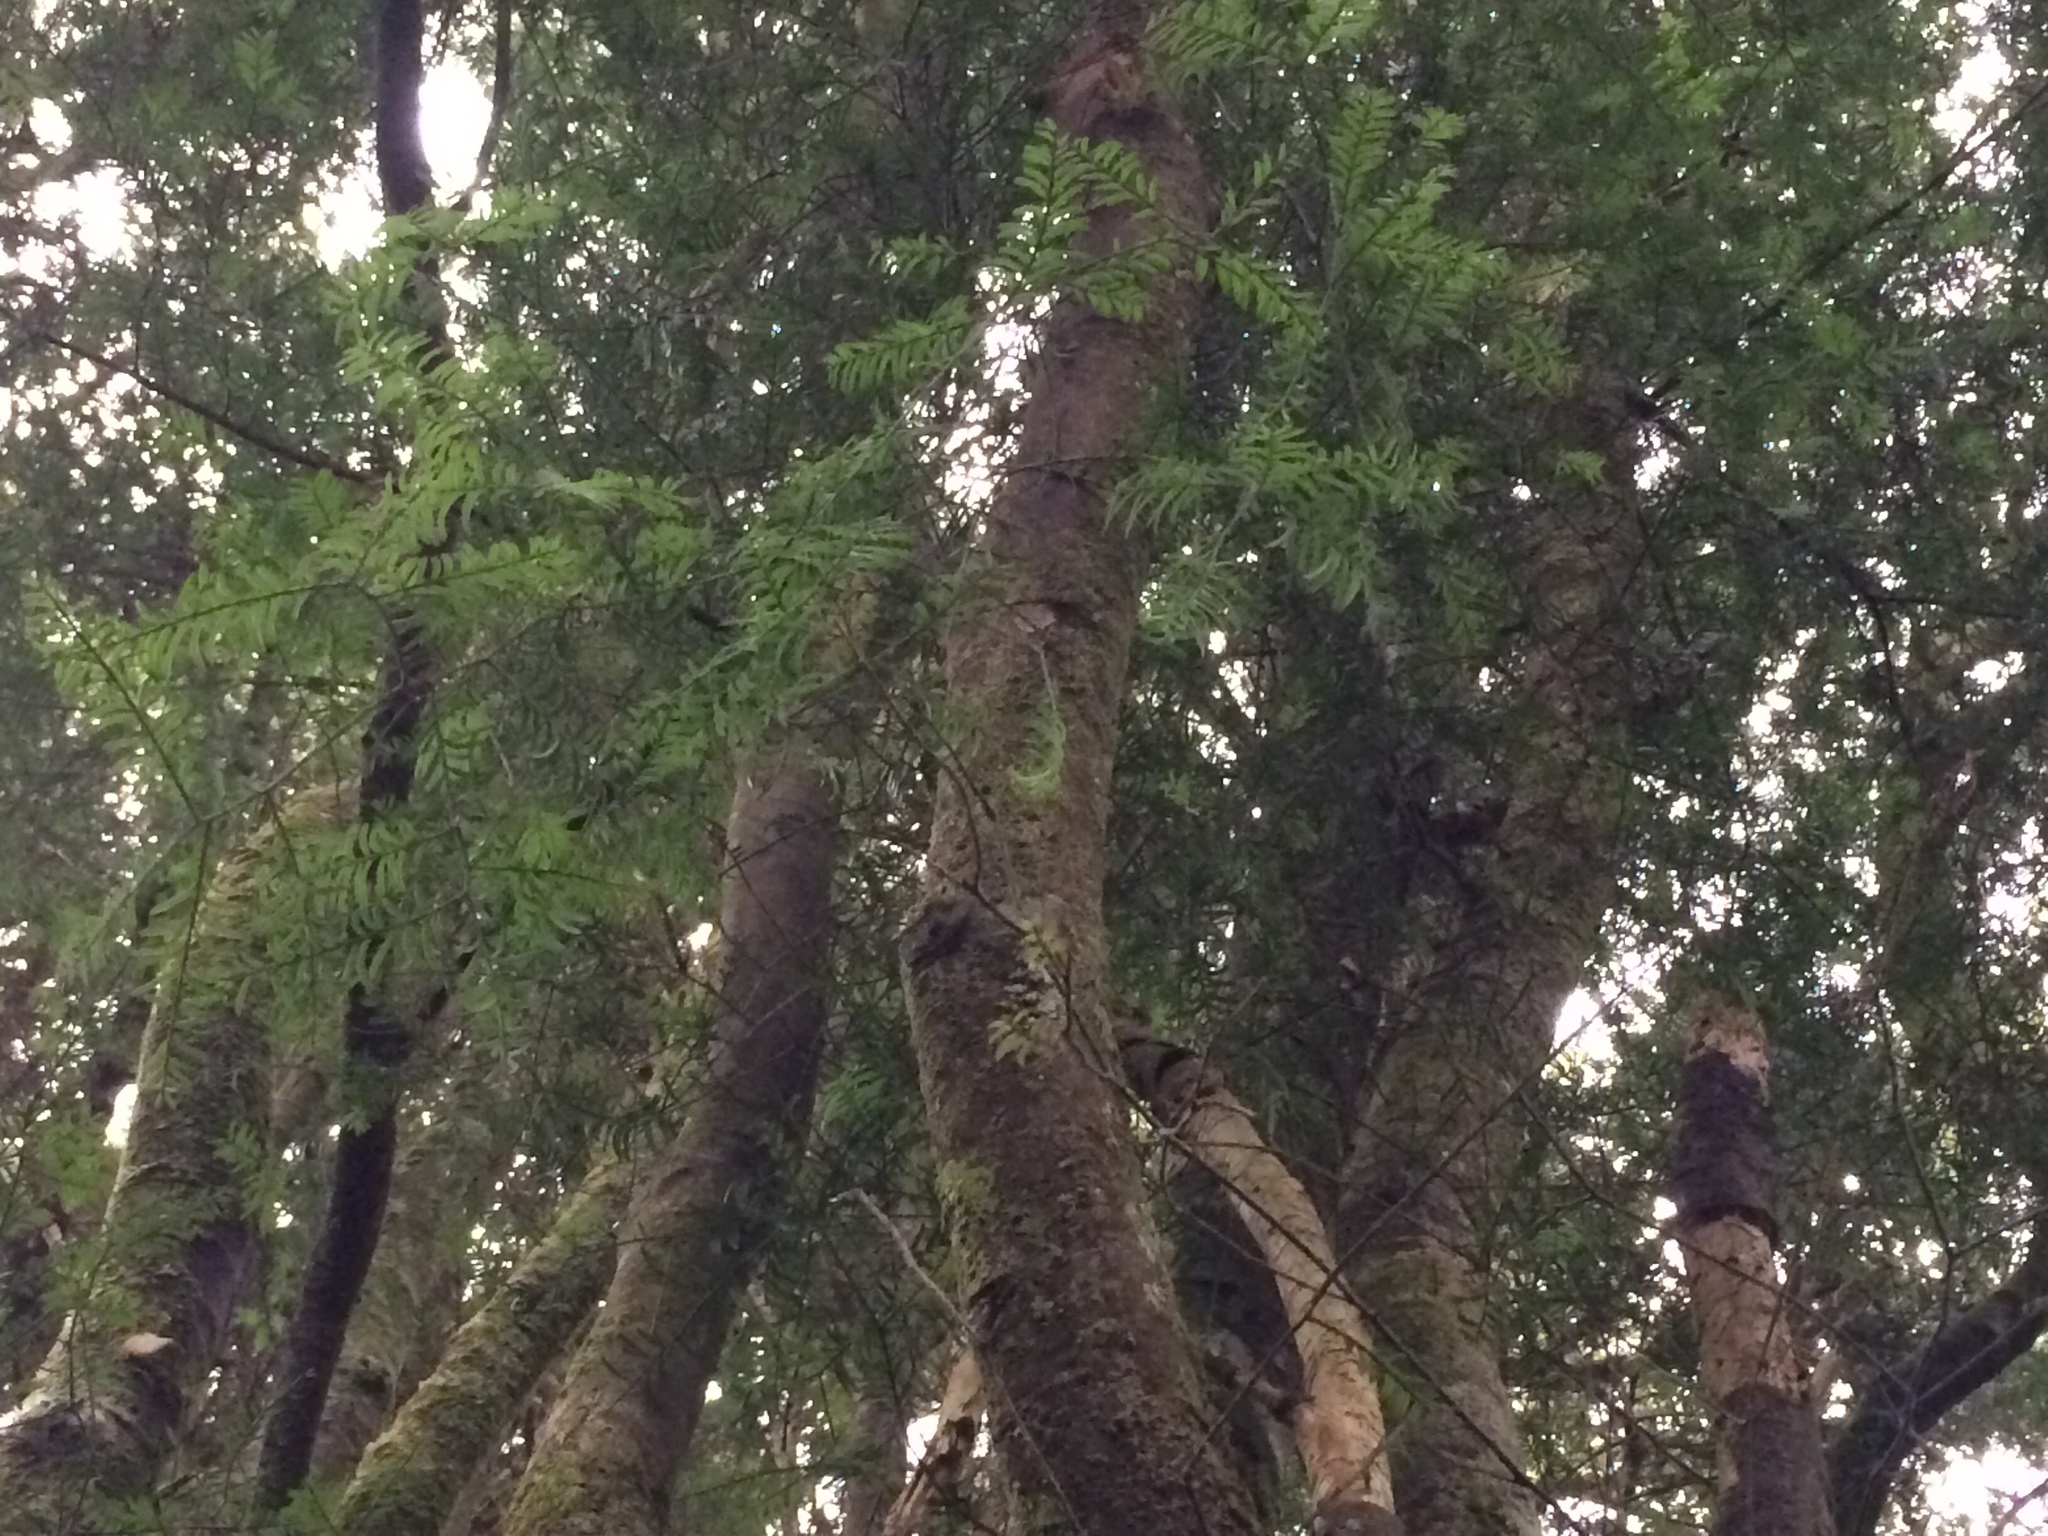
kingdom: Plantae
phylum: Tracheophyta
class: Pinopsida
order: Pinales
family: Podocarpaceae
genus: Prumnopitys
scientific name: Prumnopitys taxifolia
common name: Matai
